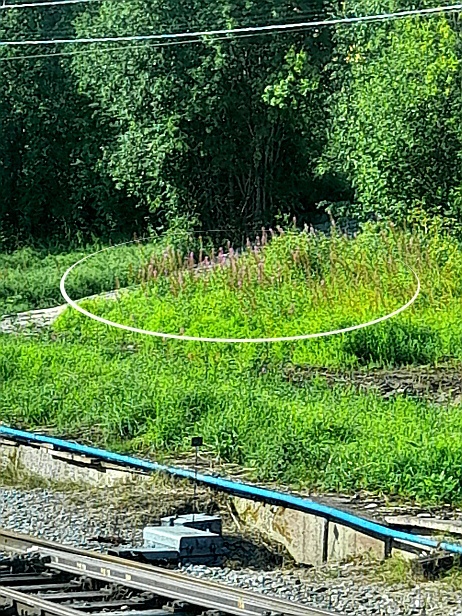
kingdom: Plantae
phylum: Tracheophyta
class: Magnoliopsida
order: Myrtales
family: Onagraceae
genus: Chamaenerion
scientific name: Chamaenerion angustifolium
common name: Fireweed
